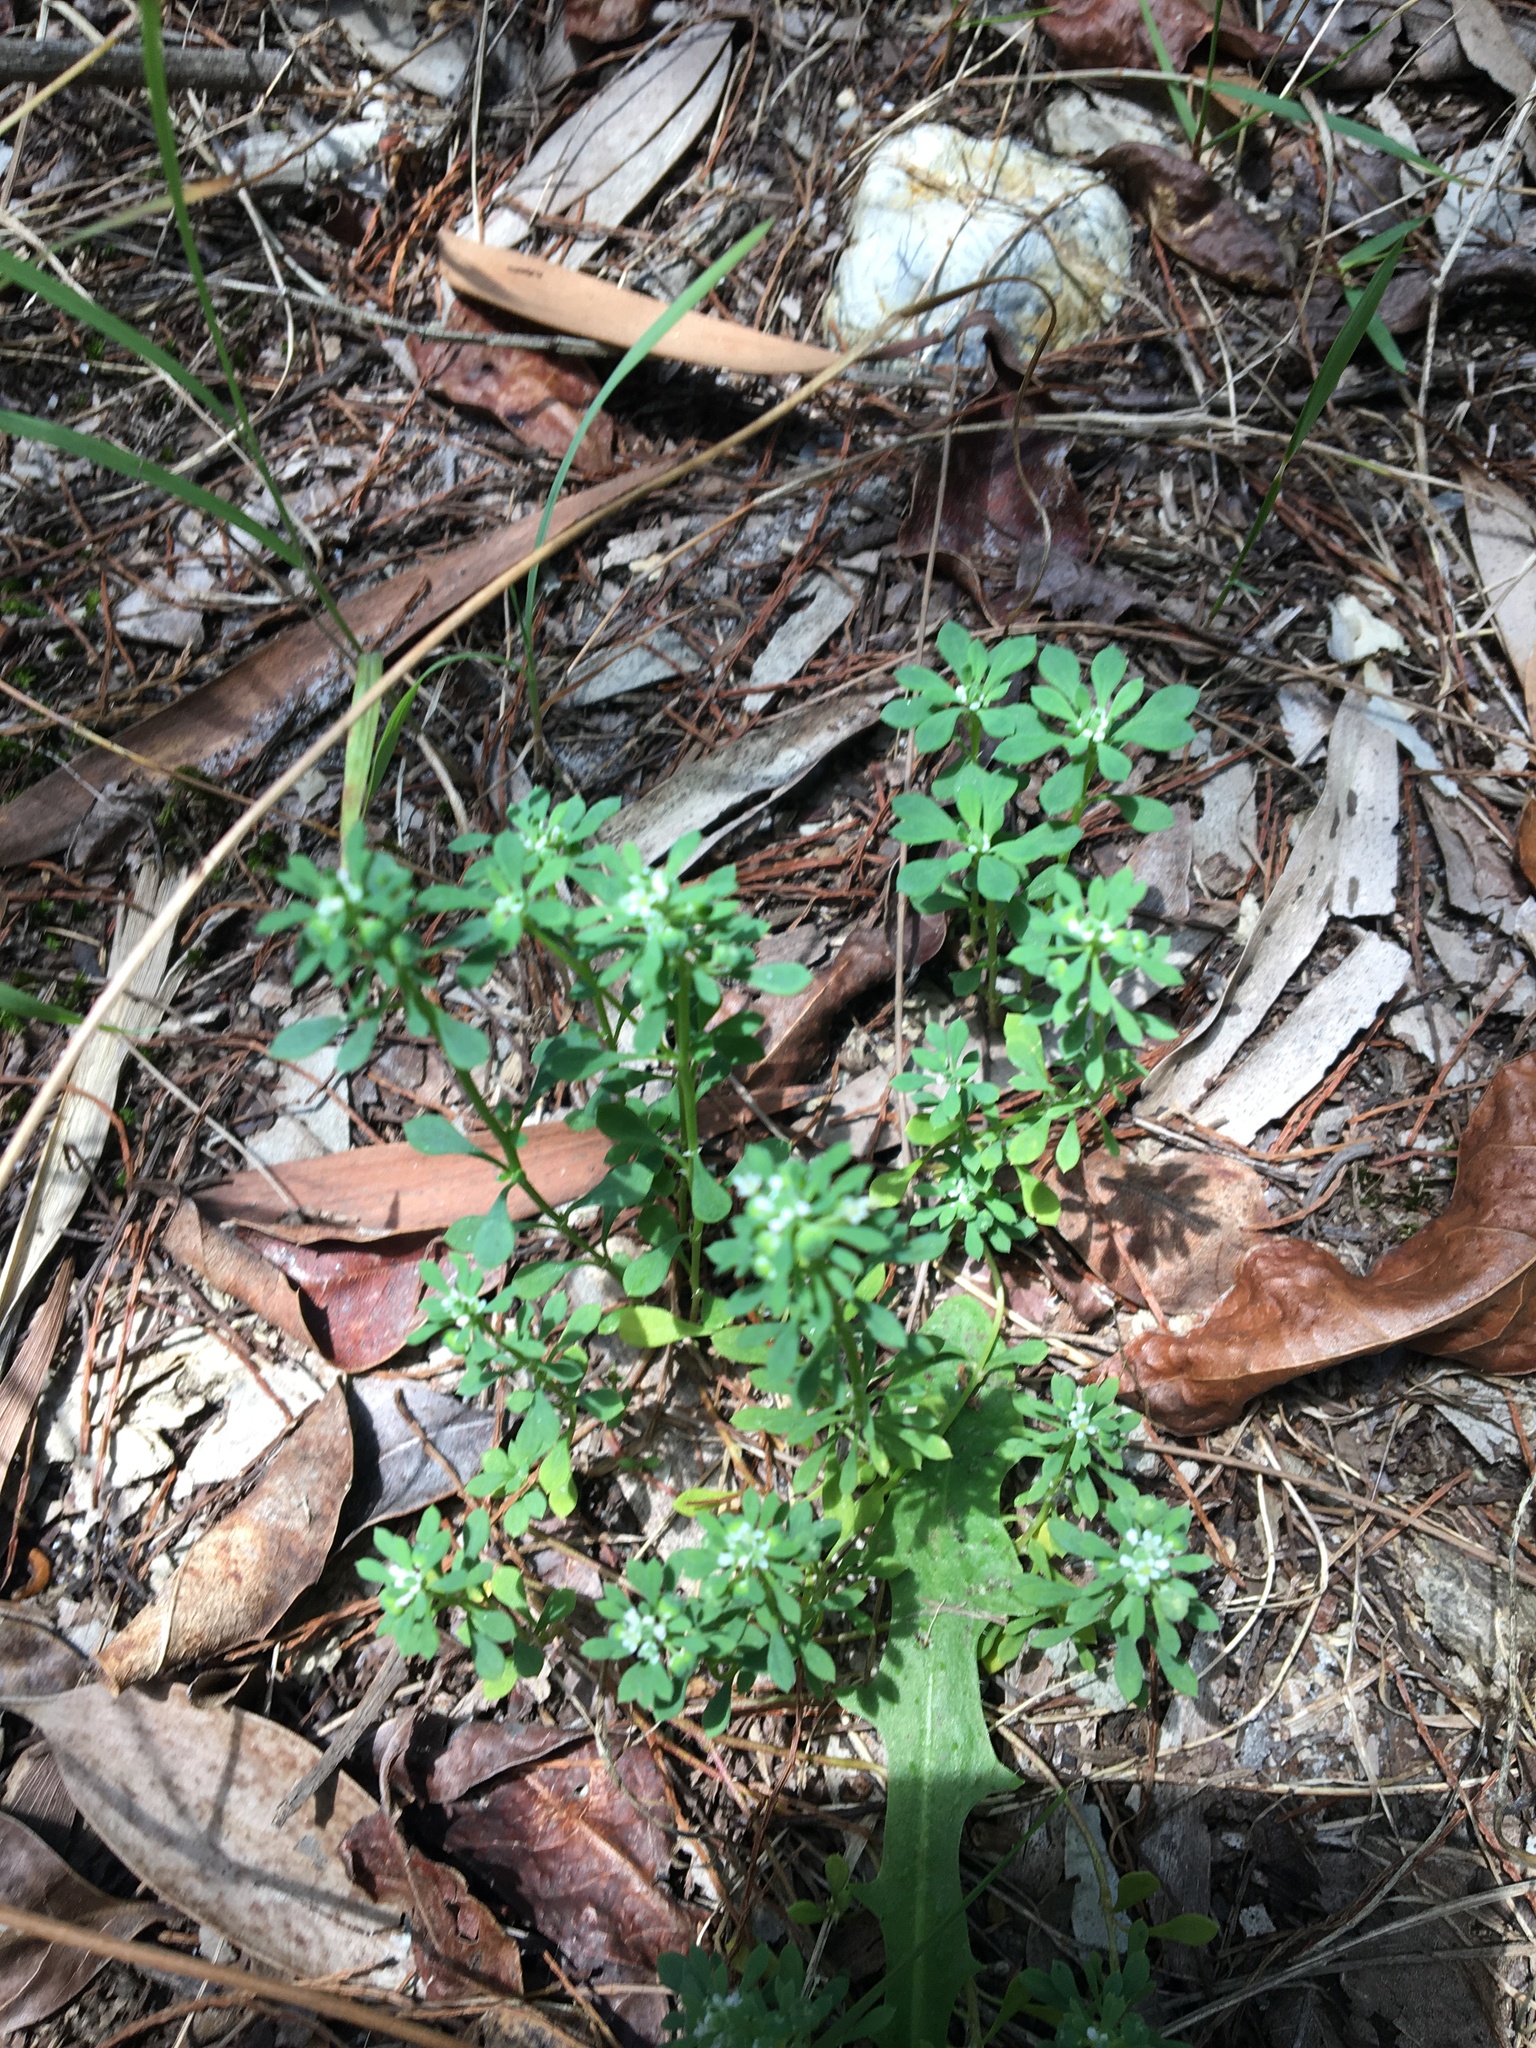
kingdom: Plantae
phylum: Tracheophyta
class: Magnoliopsida
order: Malpighiales
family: Phyllanthaceae
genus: Poranthera
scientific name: Poranthera microphylla
